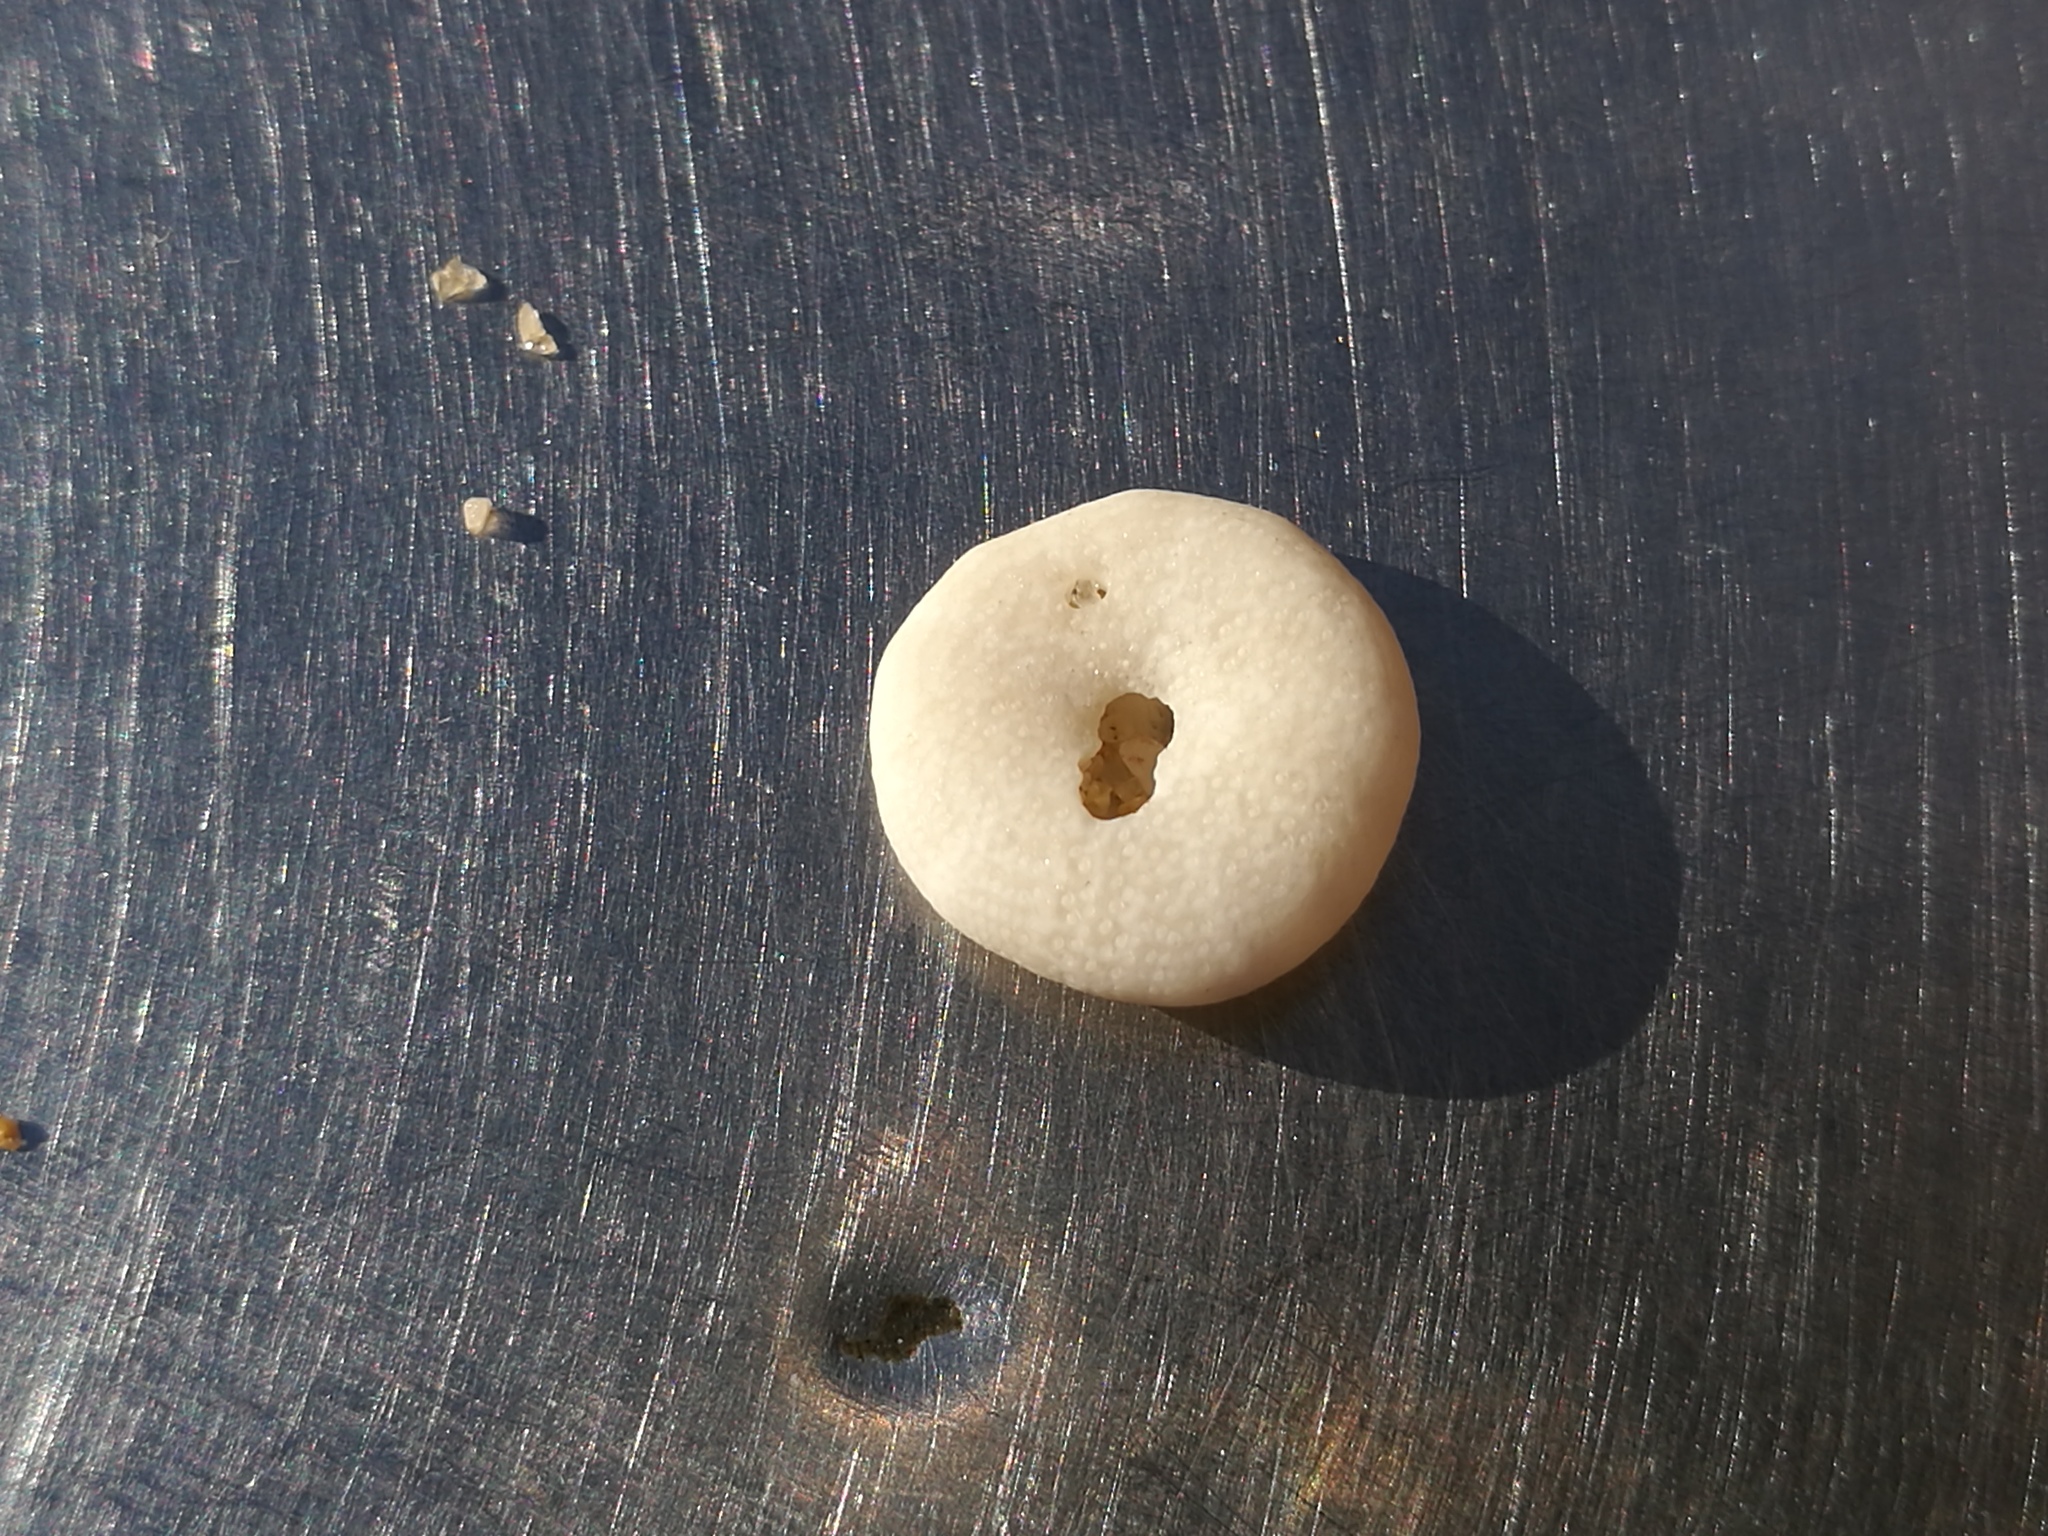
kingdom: Animalia
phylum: Echinodermata
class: Echinoidea
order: Echinolampadacea
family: Fibulariidae
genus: Echinocyamus
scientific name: Echinocyamus pusillus
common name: Broad beau of sea
